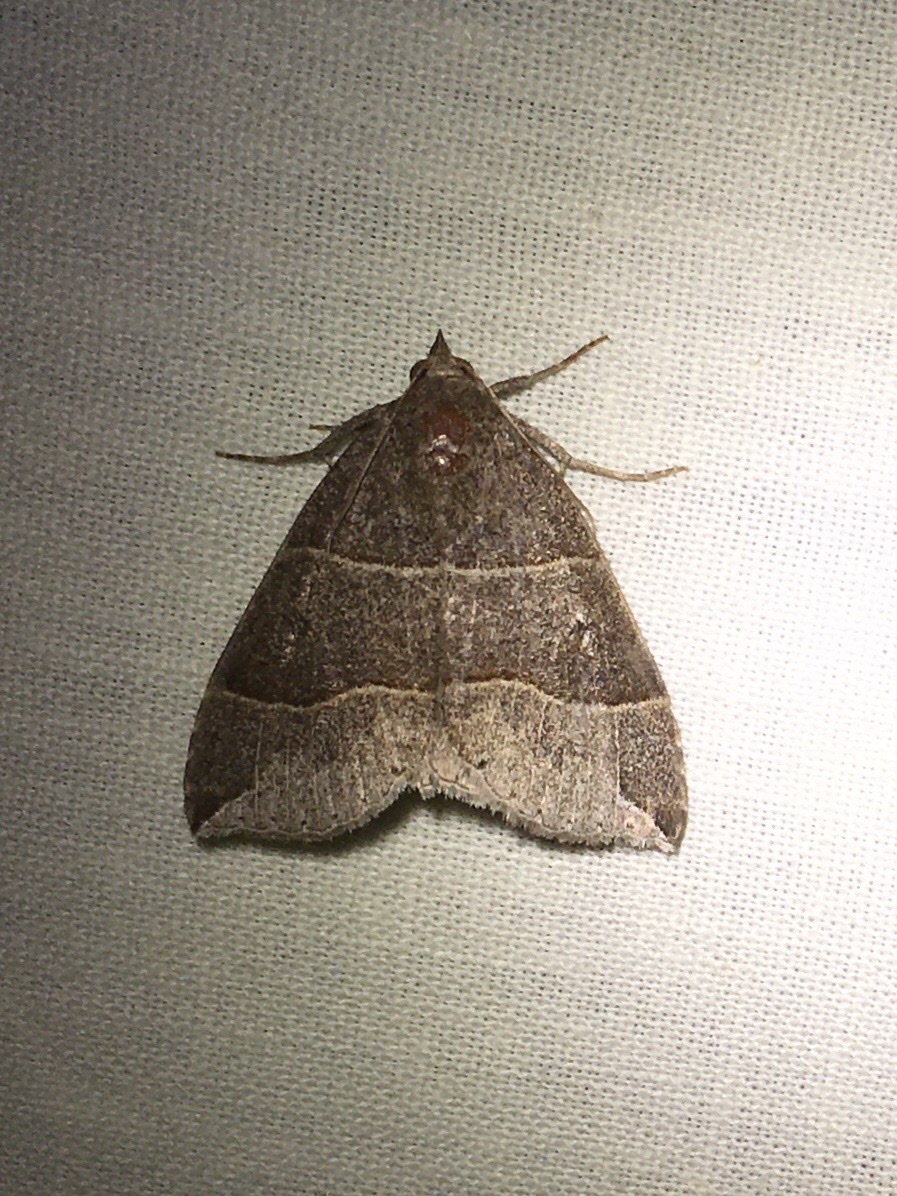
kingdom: Animalia
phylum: Arthropoda
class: Insecta
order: Lepidoptera
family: Erebidae
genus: Parallelia
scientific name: Parallelia bistriaris
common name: Maple looper moth
